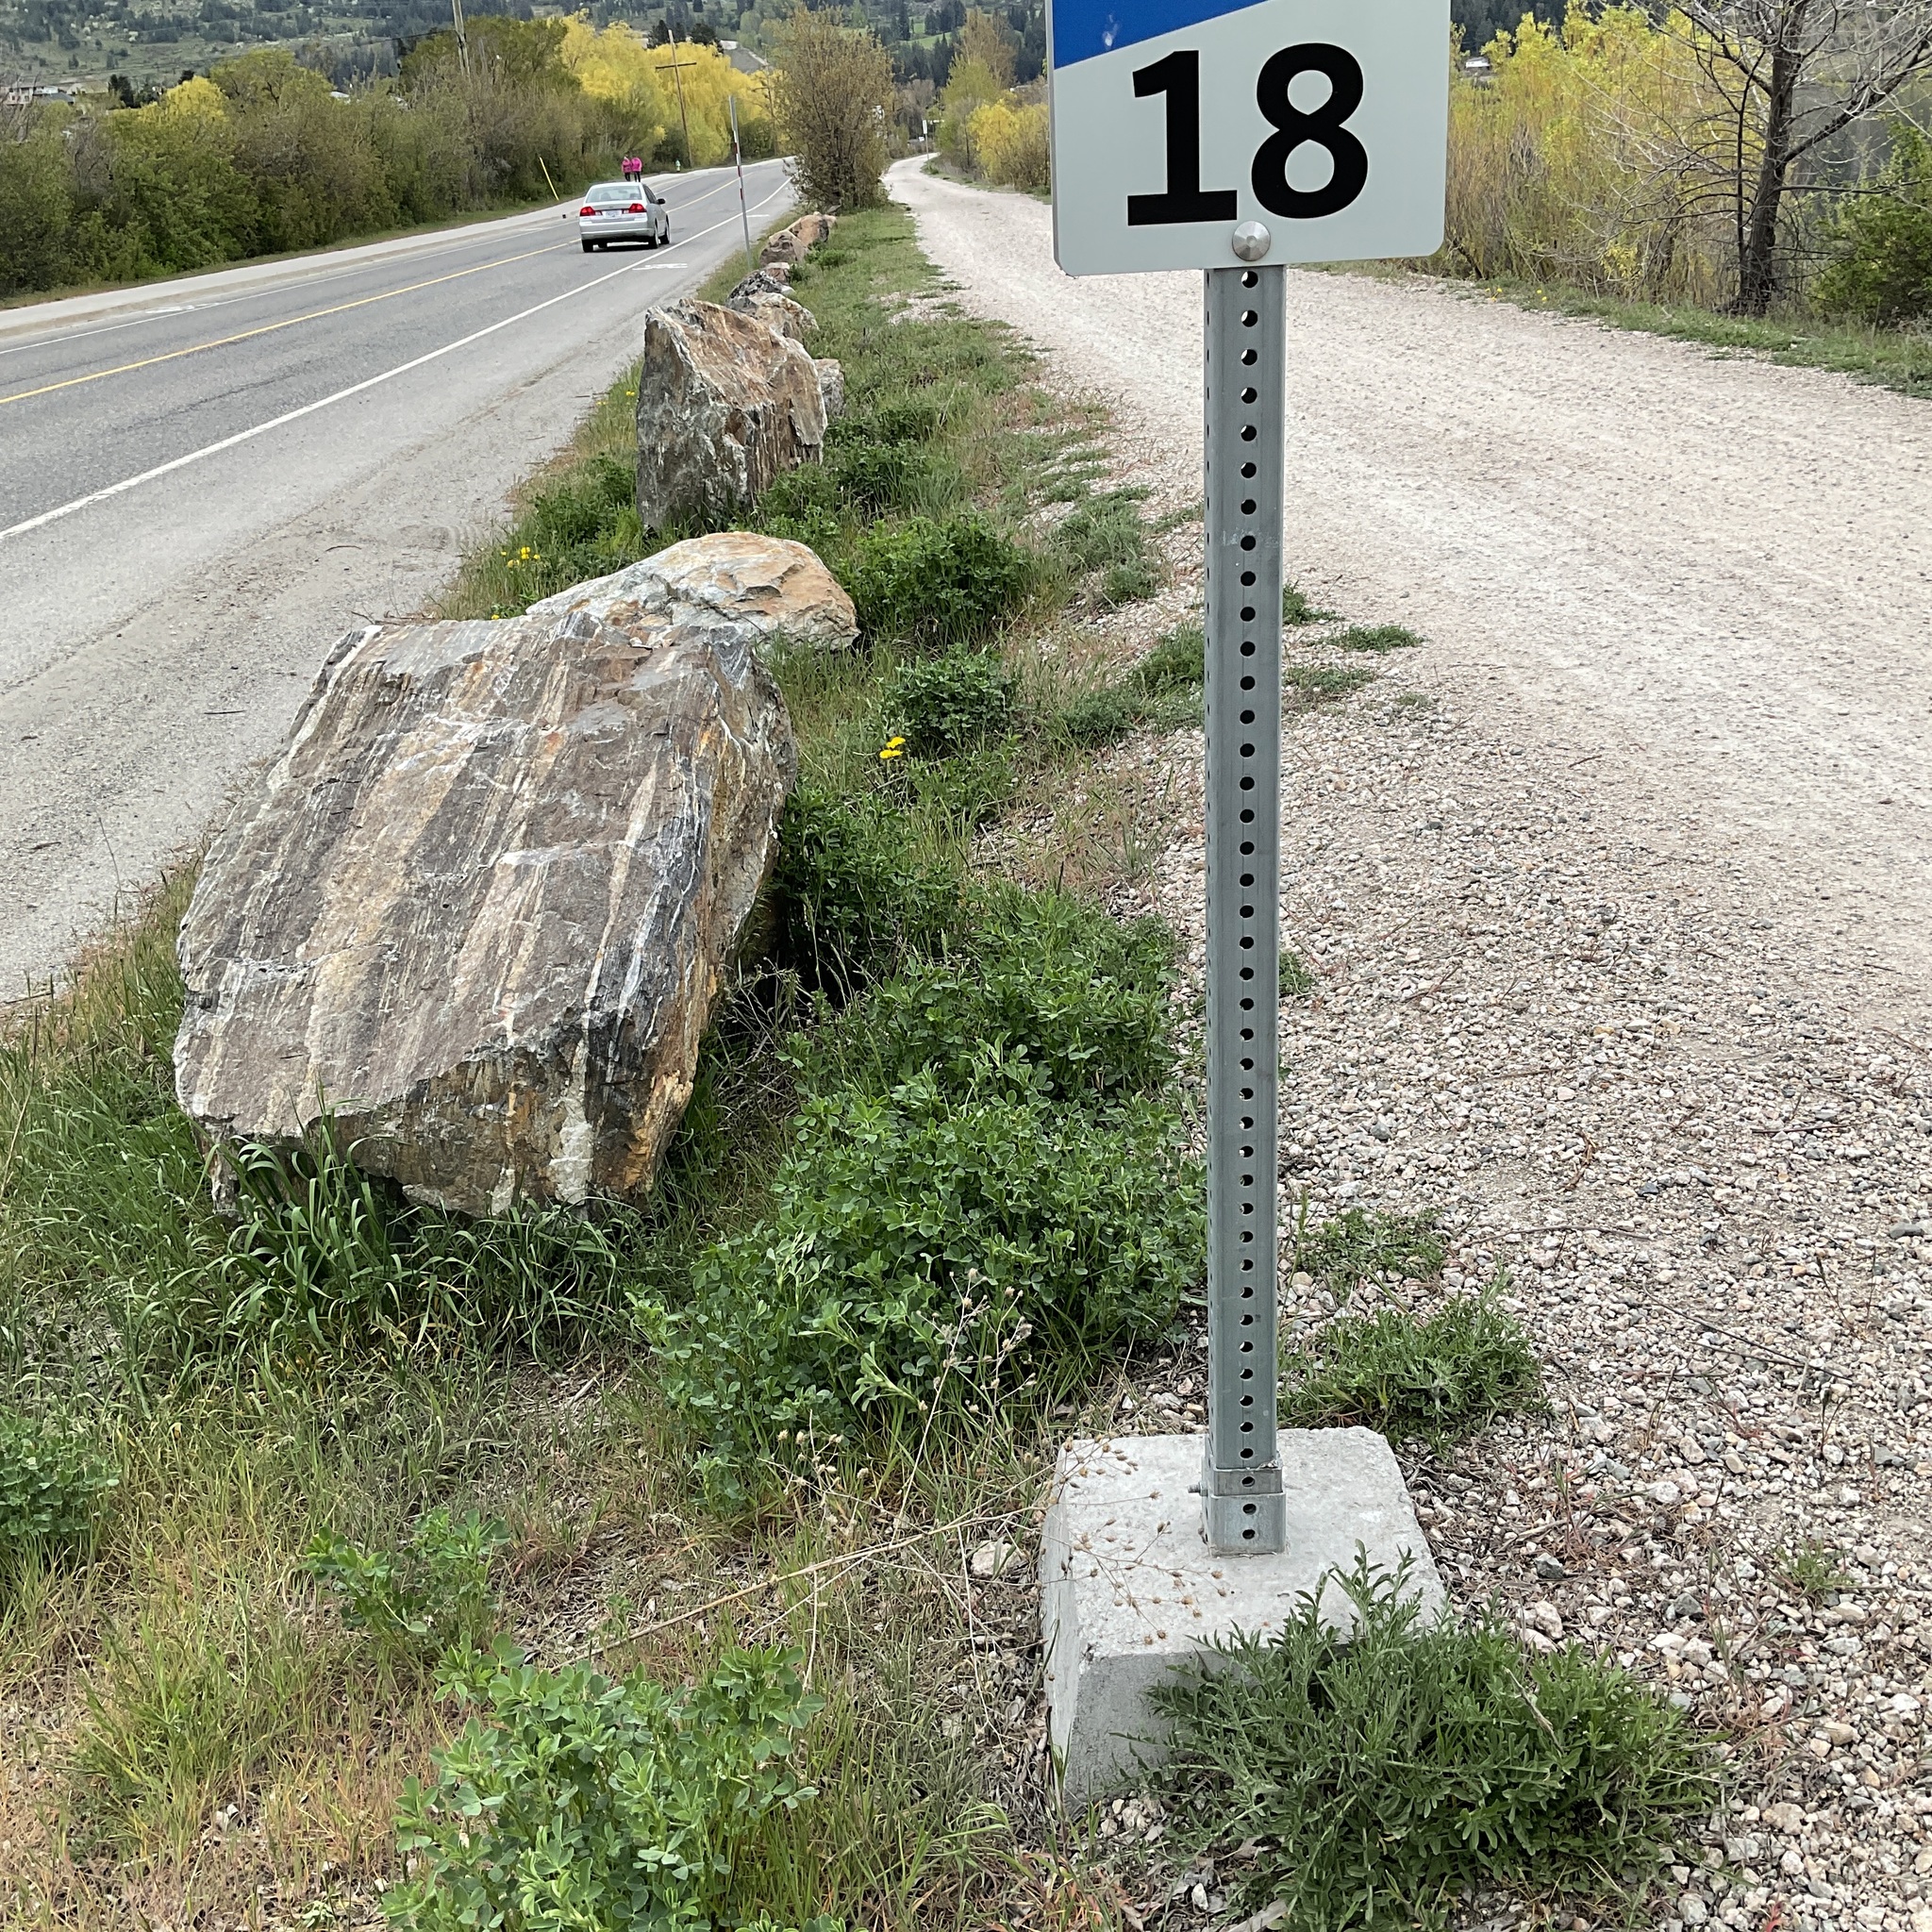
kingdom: Plantae
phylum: Tracheophyta
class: Magnoliopsida
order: Asterales
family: Asteraceae
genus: Centaurea
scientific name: Centaurea diffusa
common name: Diffuse knapweed
